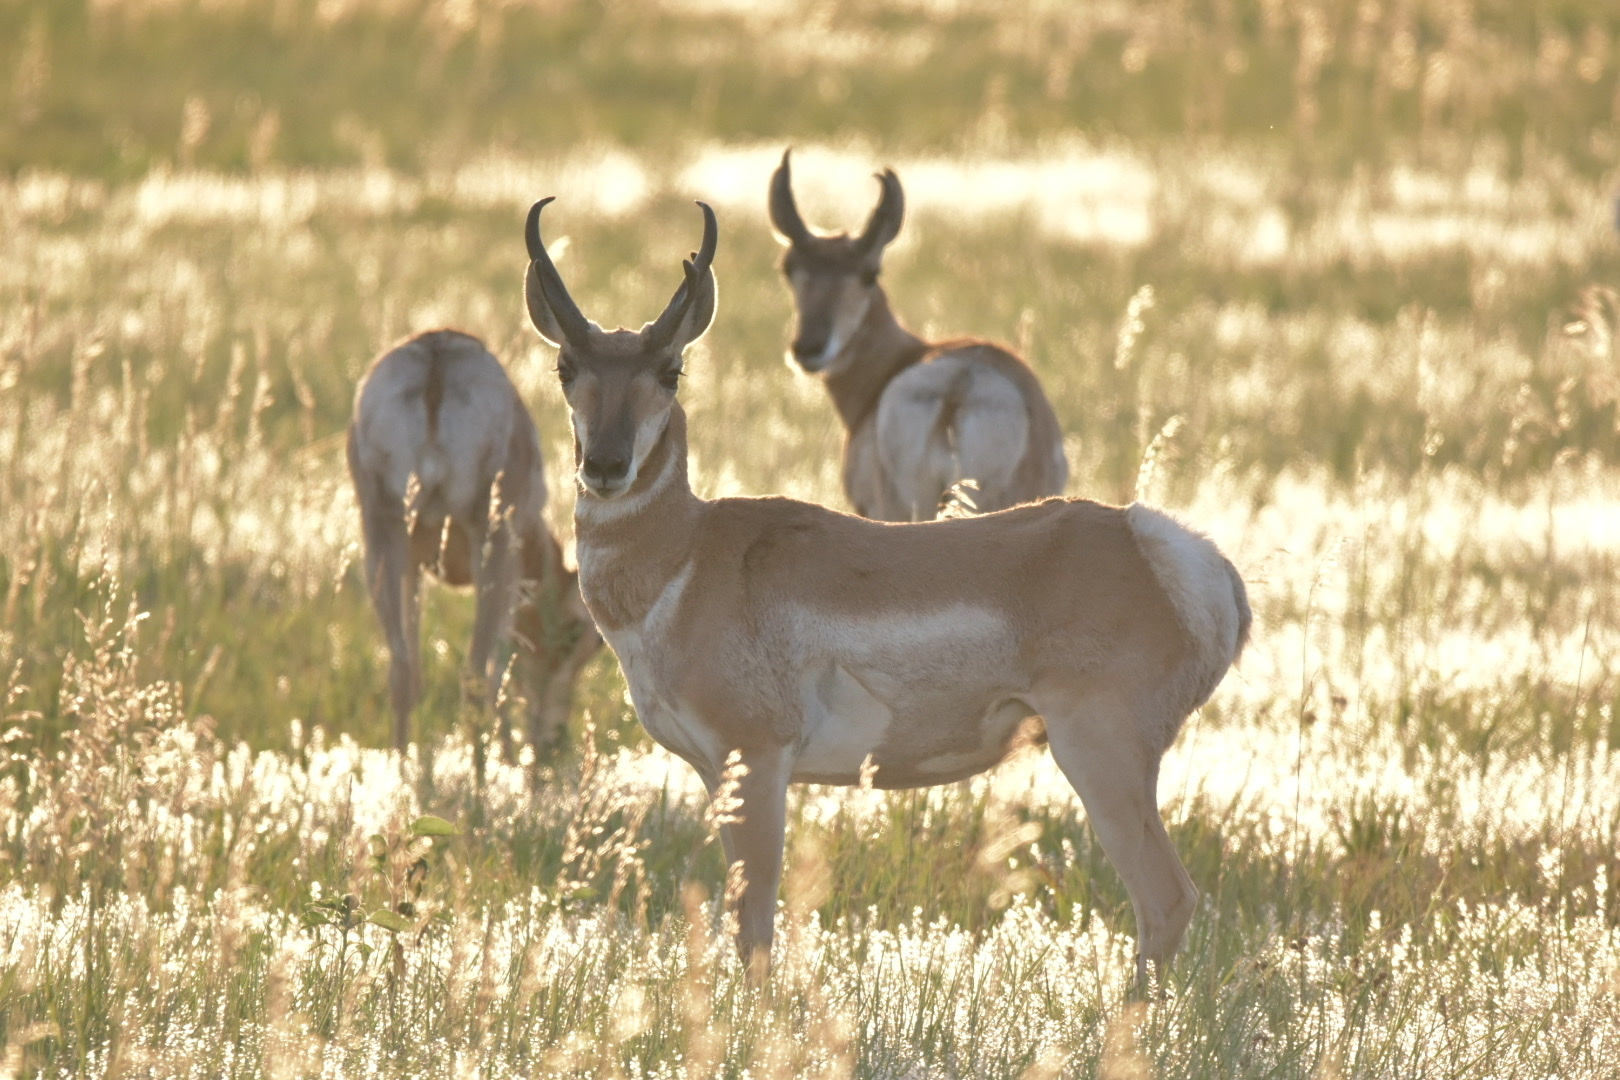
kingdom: Animalia
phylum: Chordata
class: Mammalia
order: Artiodactyla
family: Antilocapridae
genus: Antilocapra
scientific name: Antilocapra americana
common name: Pronghorn
